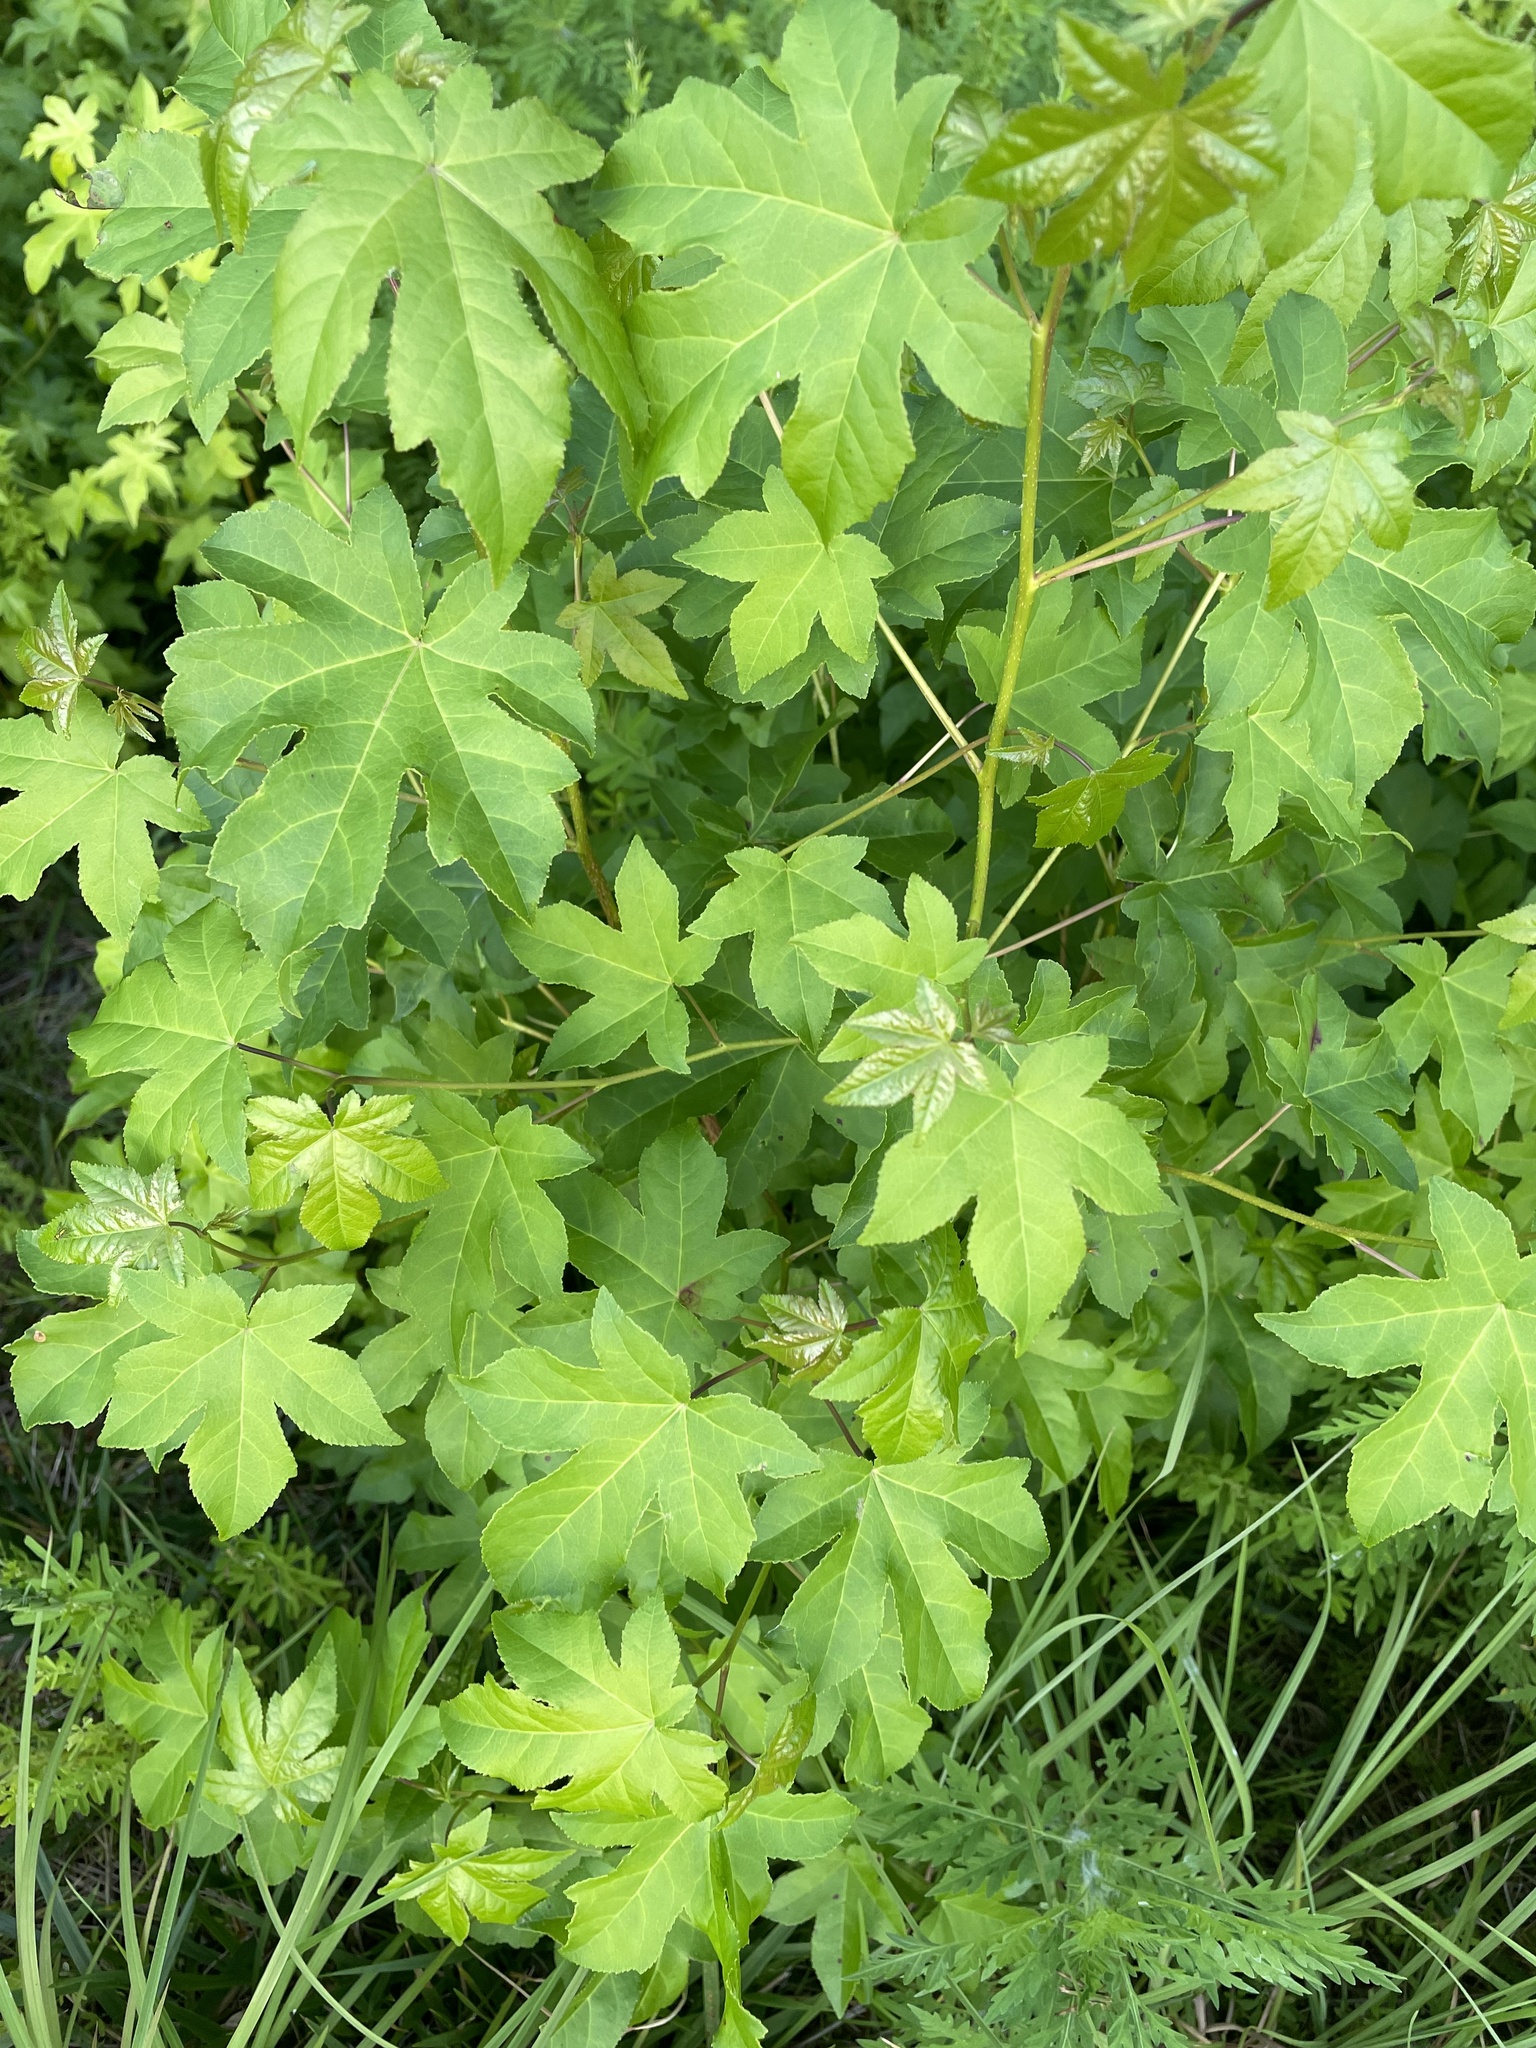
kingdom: Plantae
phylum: Tracheophyta
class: Magnoliopsida
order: Saxifragales
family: Altingiaceae
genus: Liquidambar
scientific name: Liquidambar styraciflua
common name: Sweet gum
